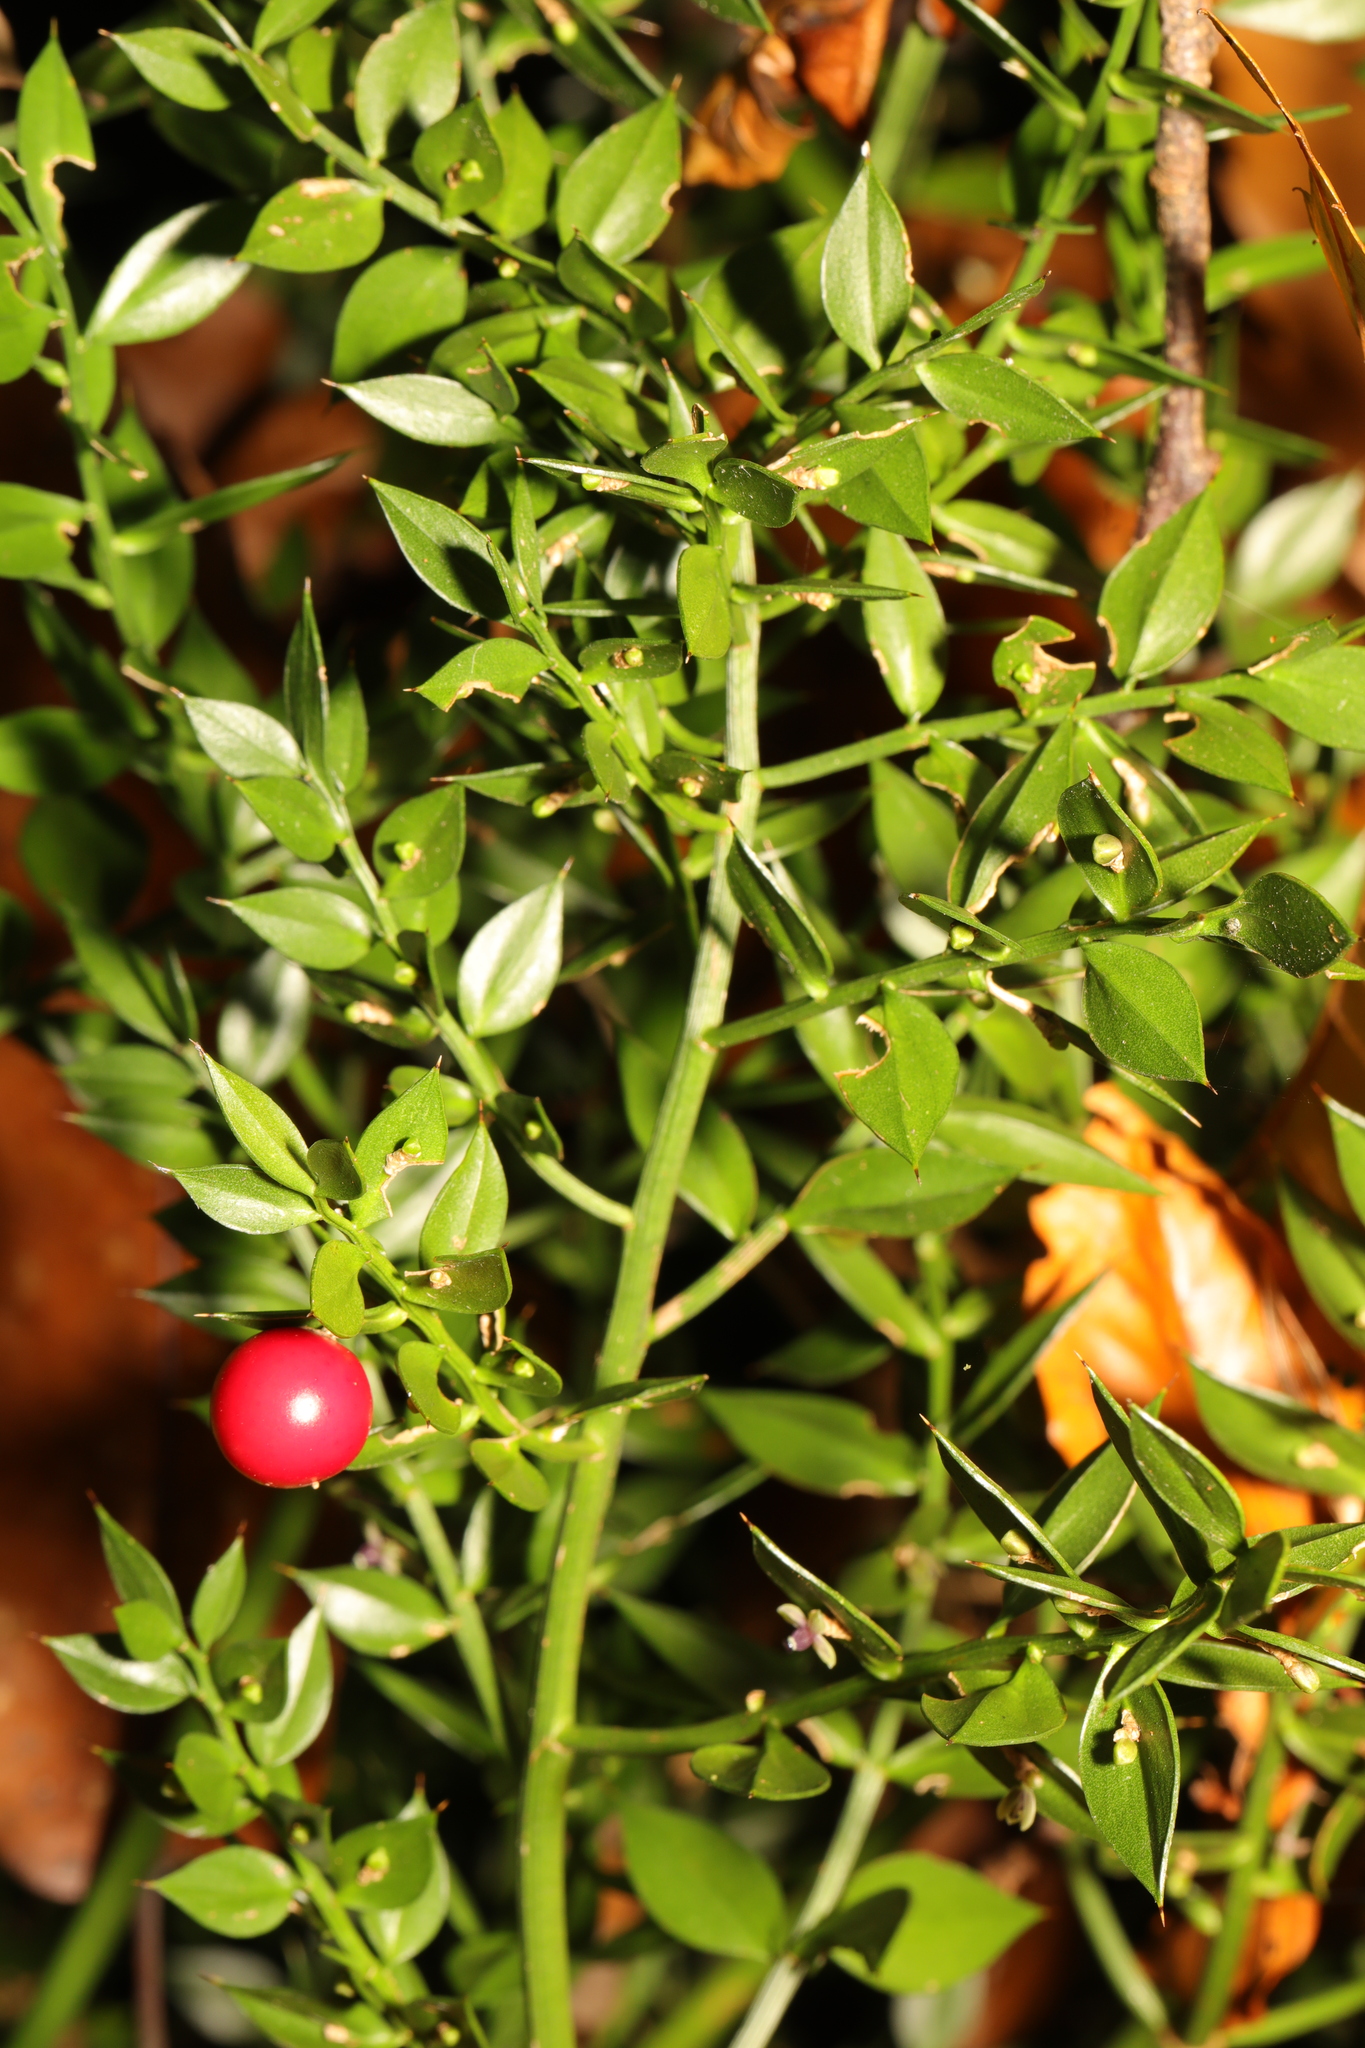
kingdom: Plantae
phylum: Tracheophyta
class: Liliopsida
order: Asparagales
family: Asparagaceae
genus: Ruscus
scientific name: Ruscus aculeatus
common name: Butcher's-broom
